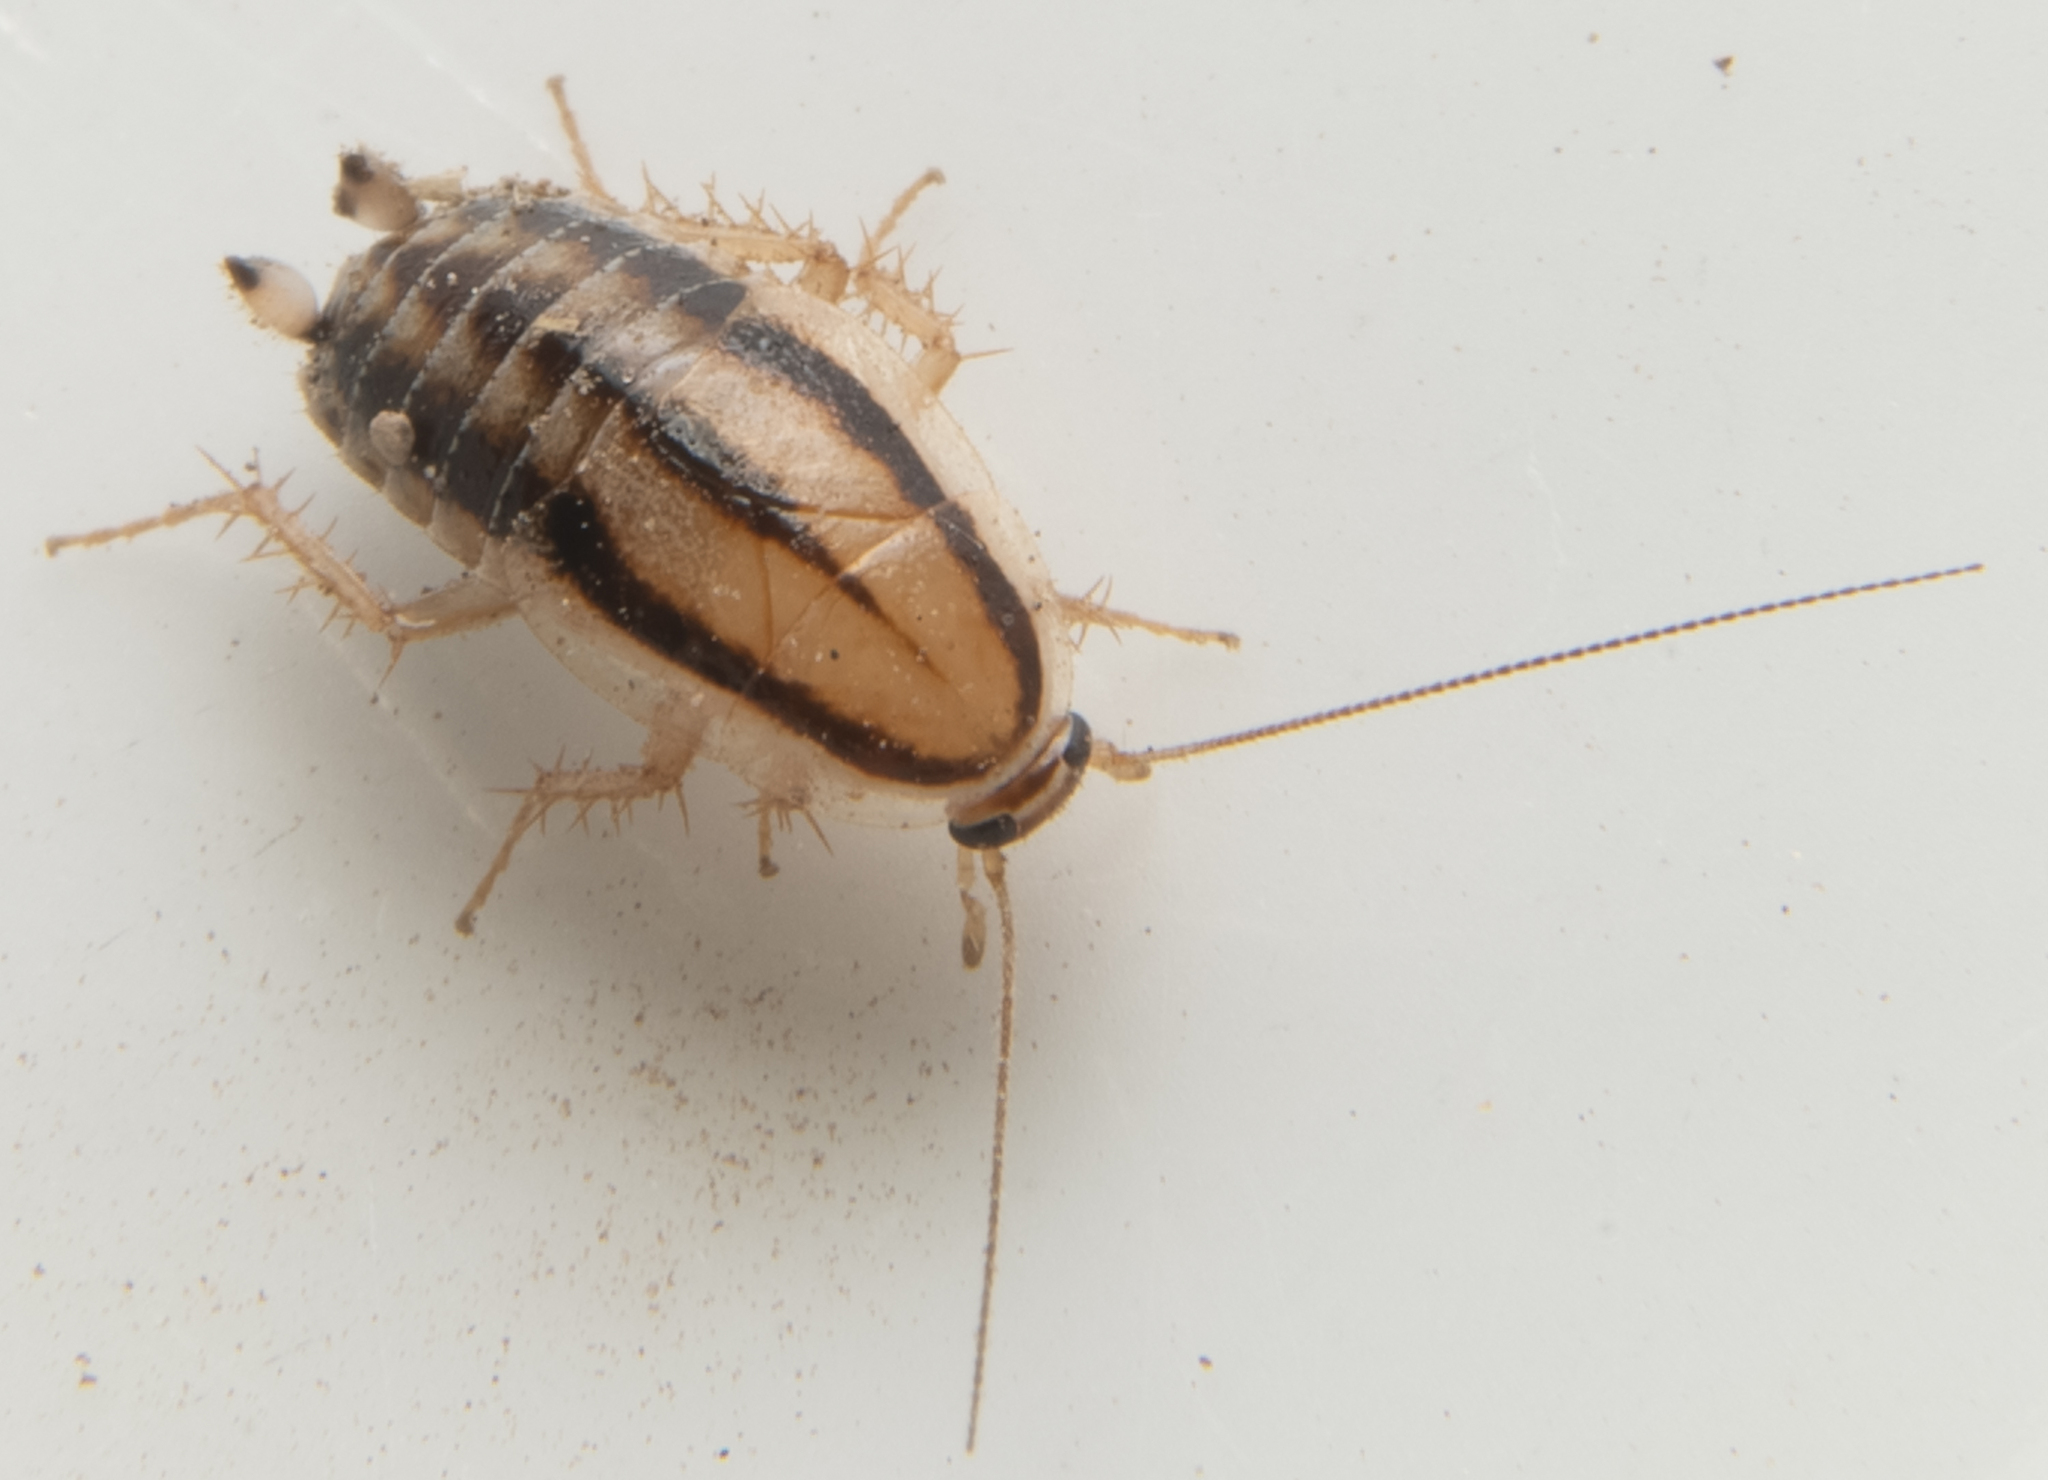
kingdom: Animalia
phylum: Arthropoda
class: Insecta
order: Blattodea
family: Ectobiidae
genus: Luridiblatta
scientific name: Luridiblatta trivittata
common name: Three-lined cockroach
